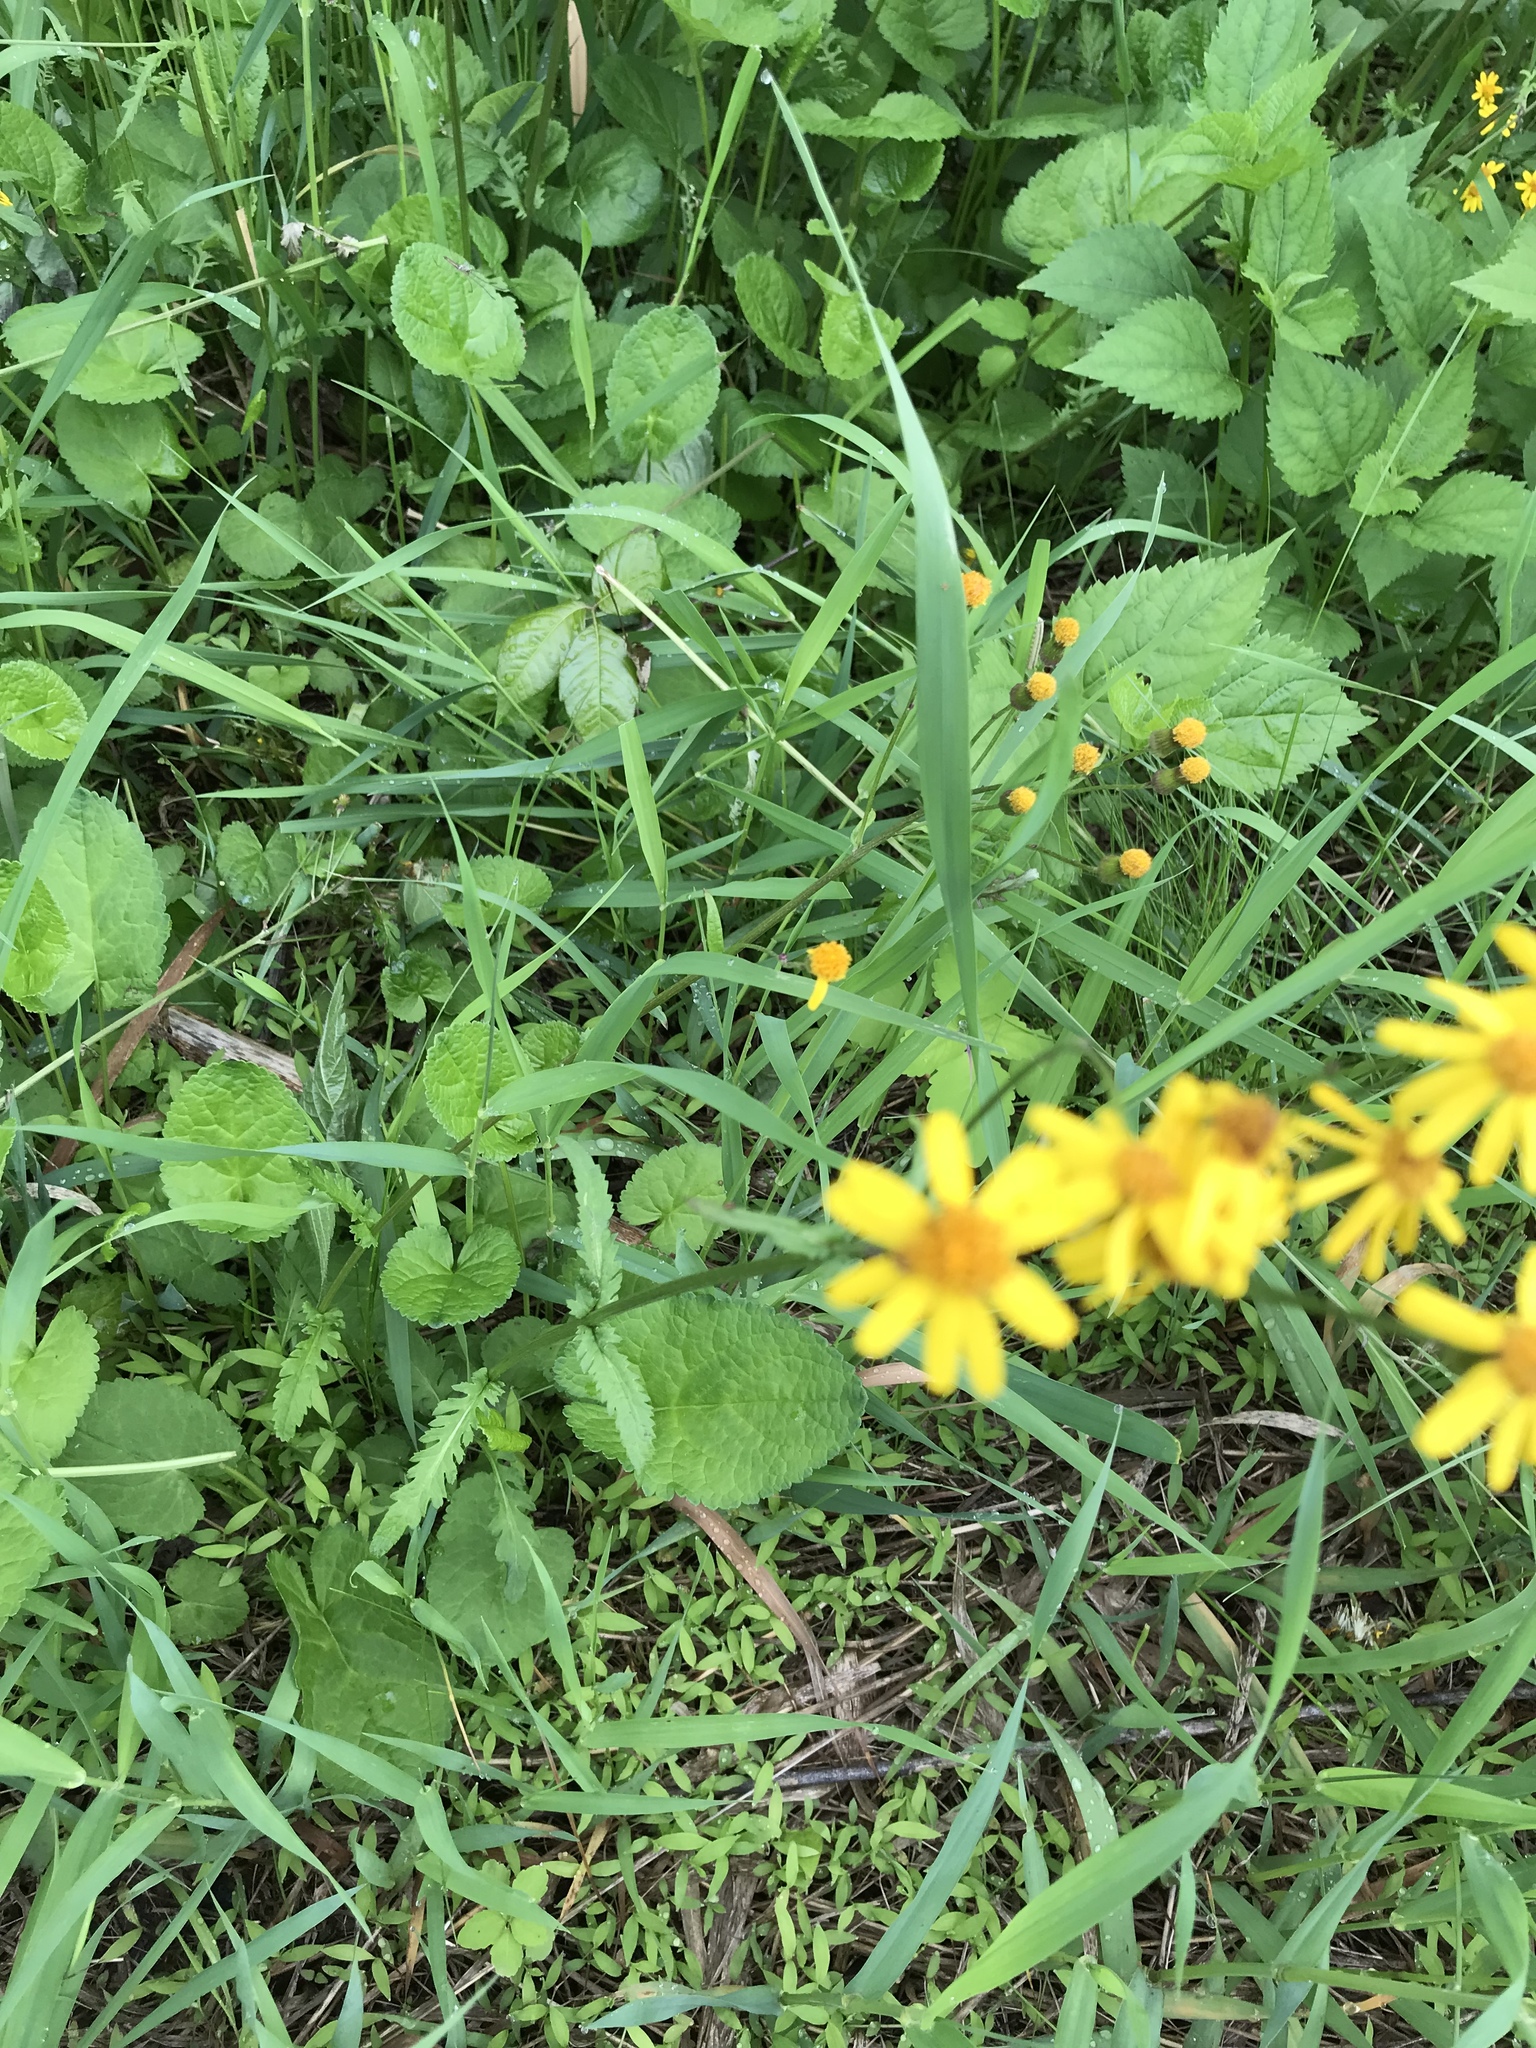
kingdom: Plantae
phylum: Tracheophyta
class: Magnoliopsida
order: Asterales
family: Asteraceae
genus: Packera
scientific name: Packera aurea
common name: Golden groundsel
